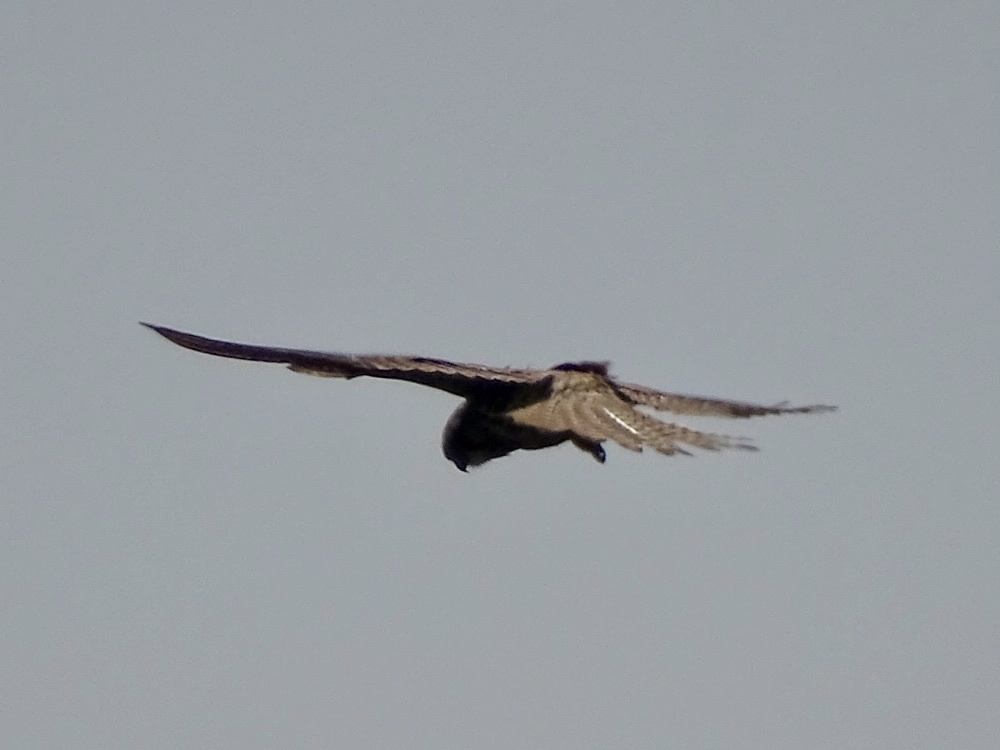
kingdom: Animalia
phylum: Chordata
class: Aves
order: Falconiformes
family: Falconidae
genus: Falco
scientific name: Falco tinnunculus
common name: Common kestrel
